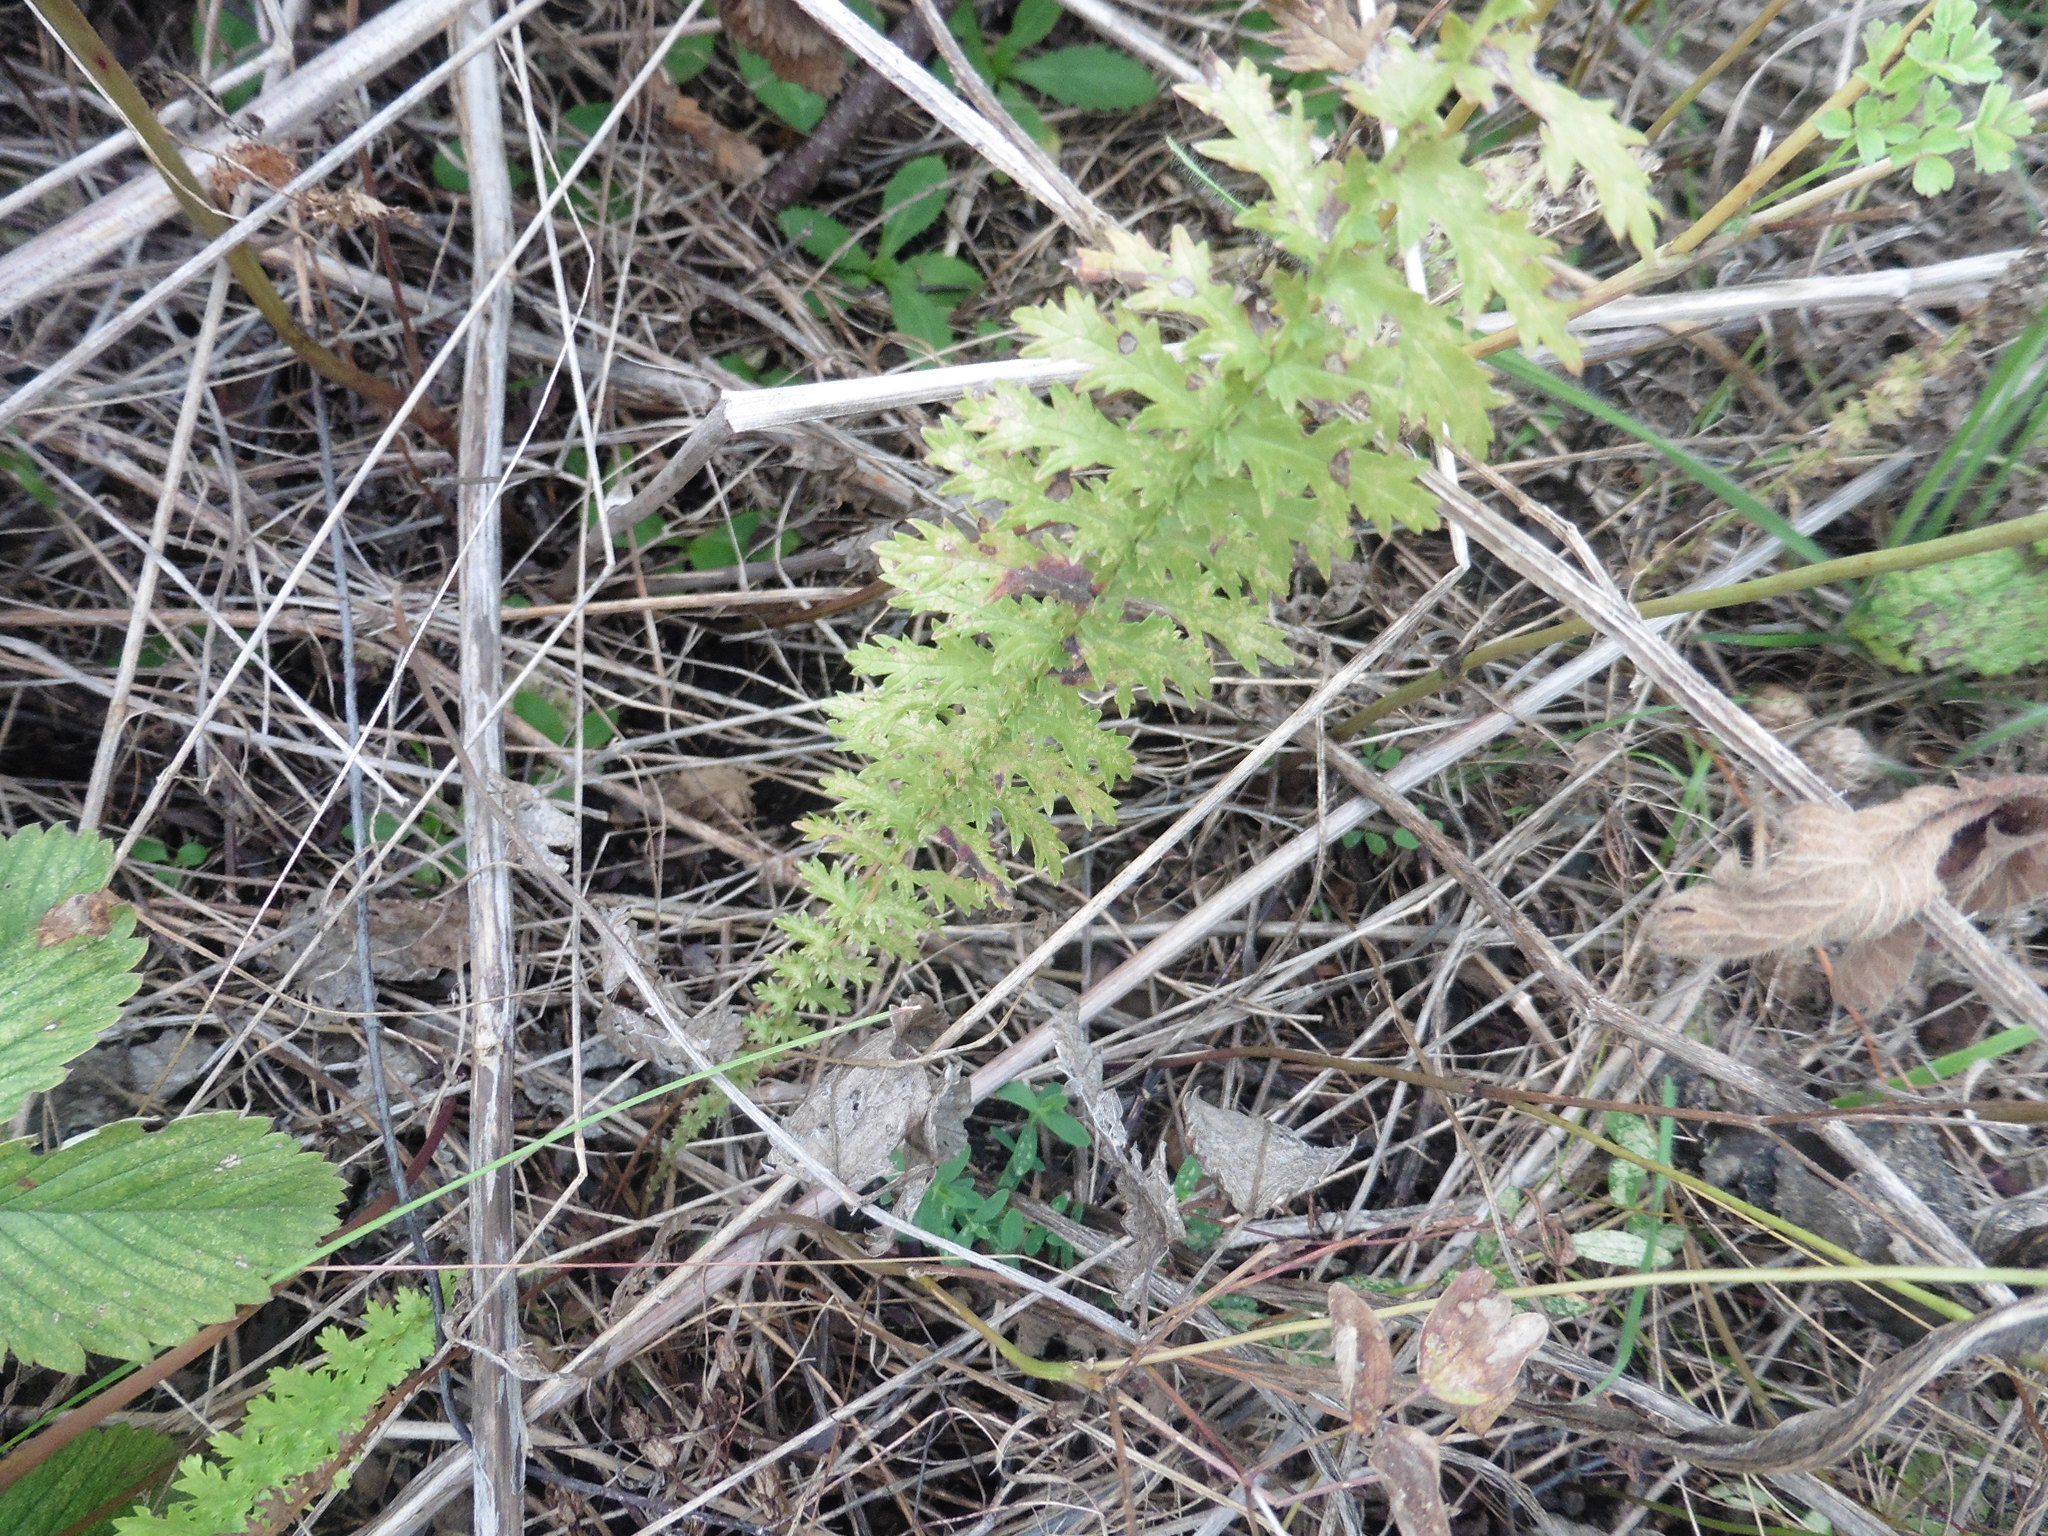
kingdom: Plantae
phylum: Tracheophyta
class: Magnoliopsida
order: Rosales
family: Rosaceae
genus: Filipendula
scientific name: Filipendula vulgaris
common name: Dropwort
